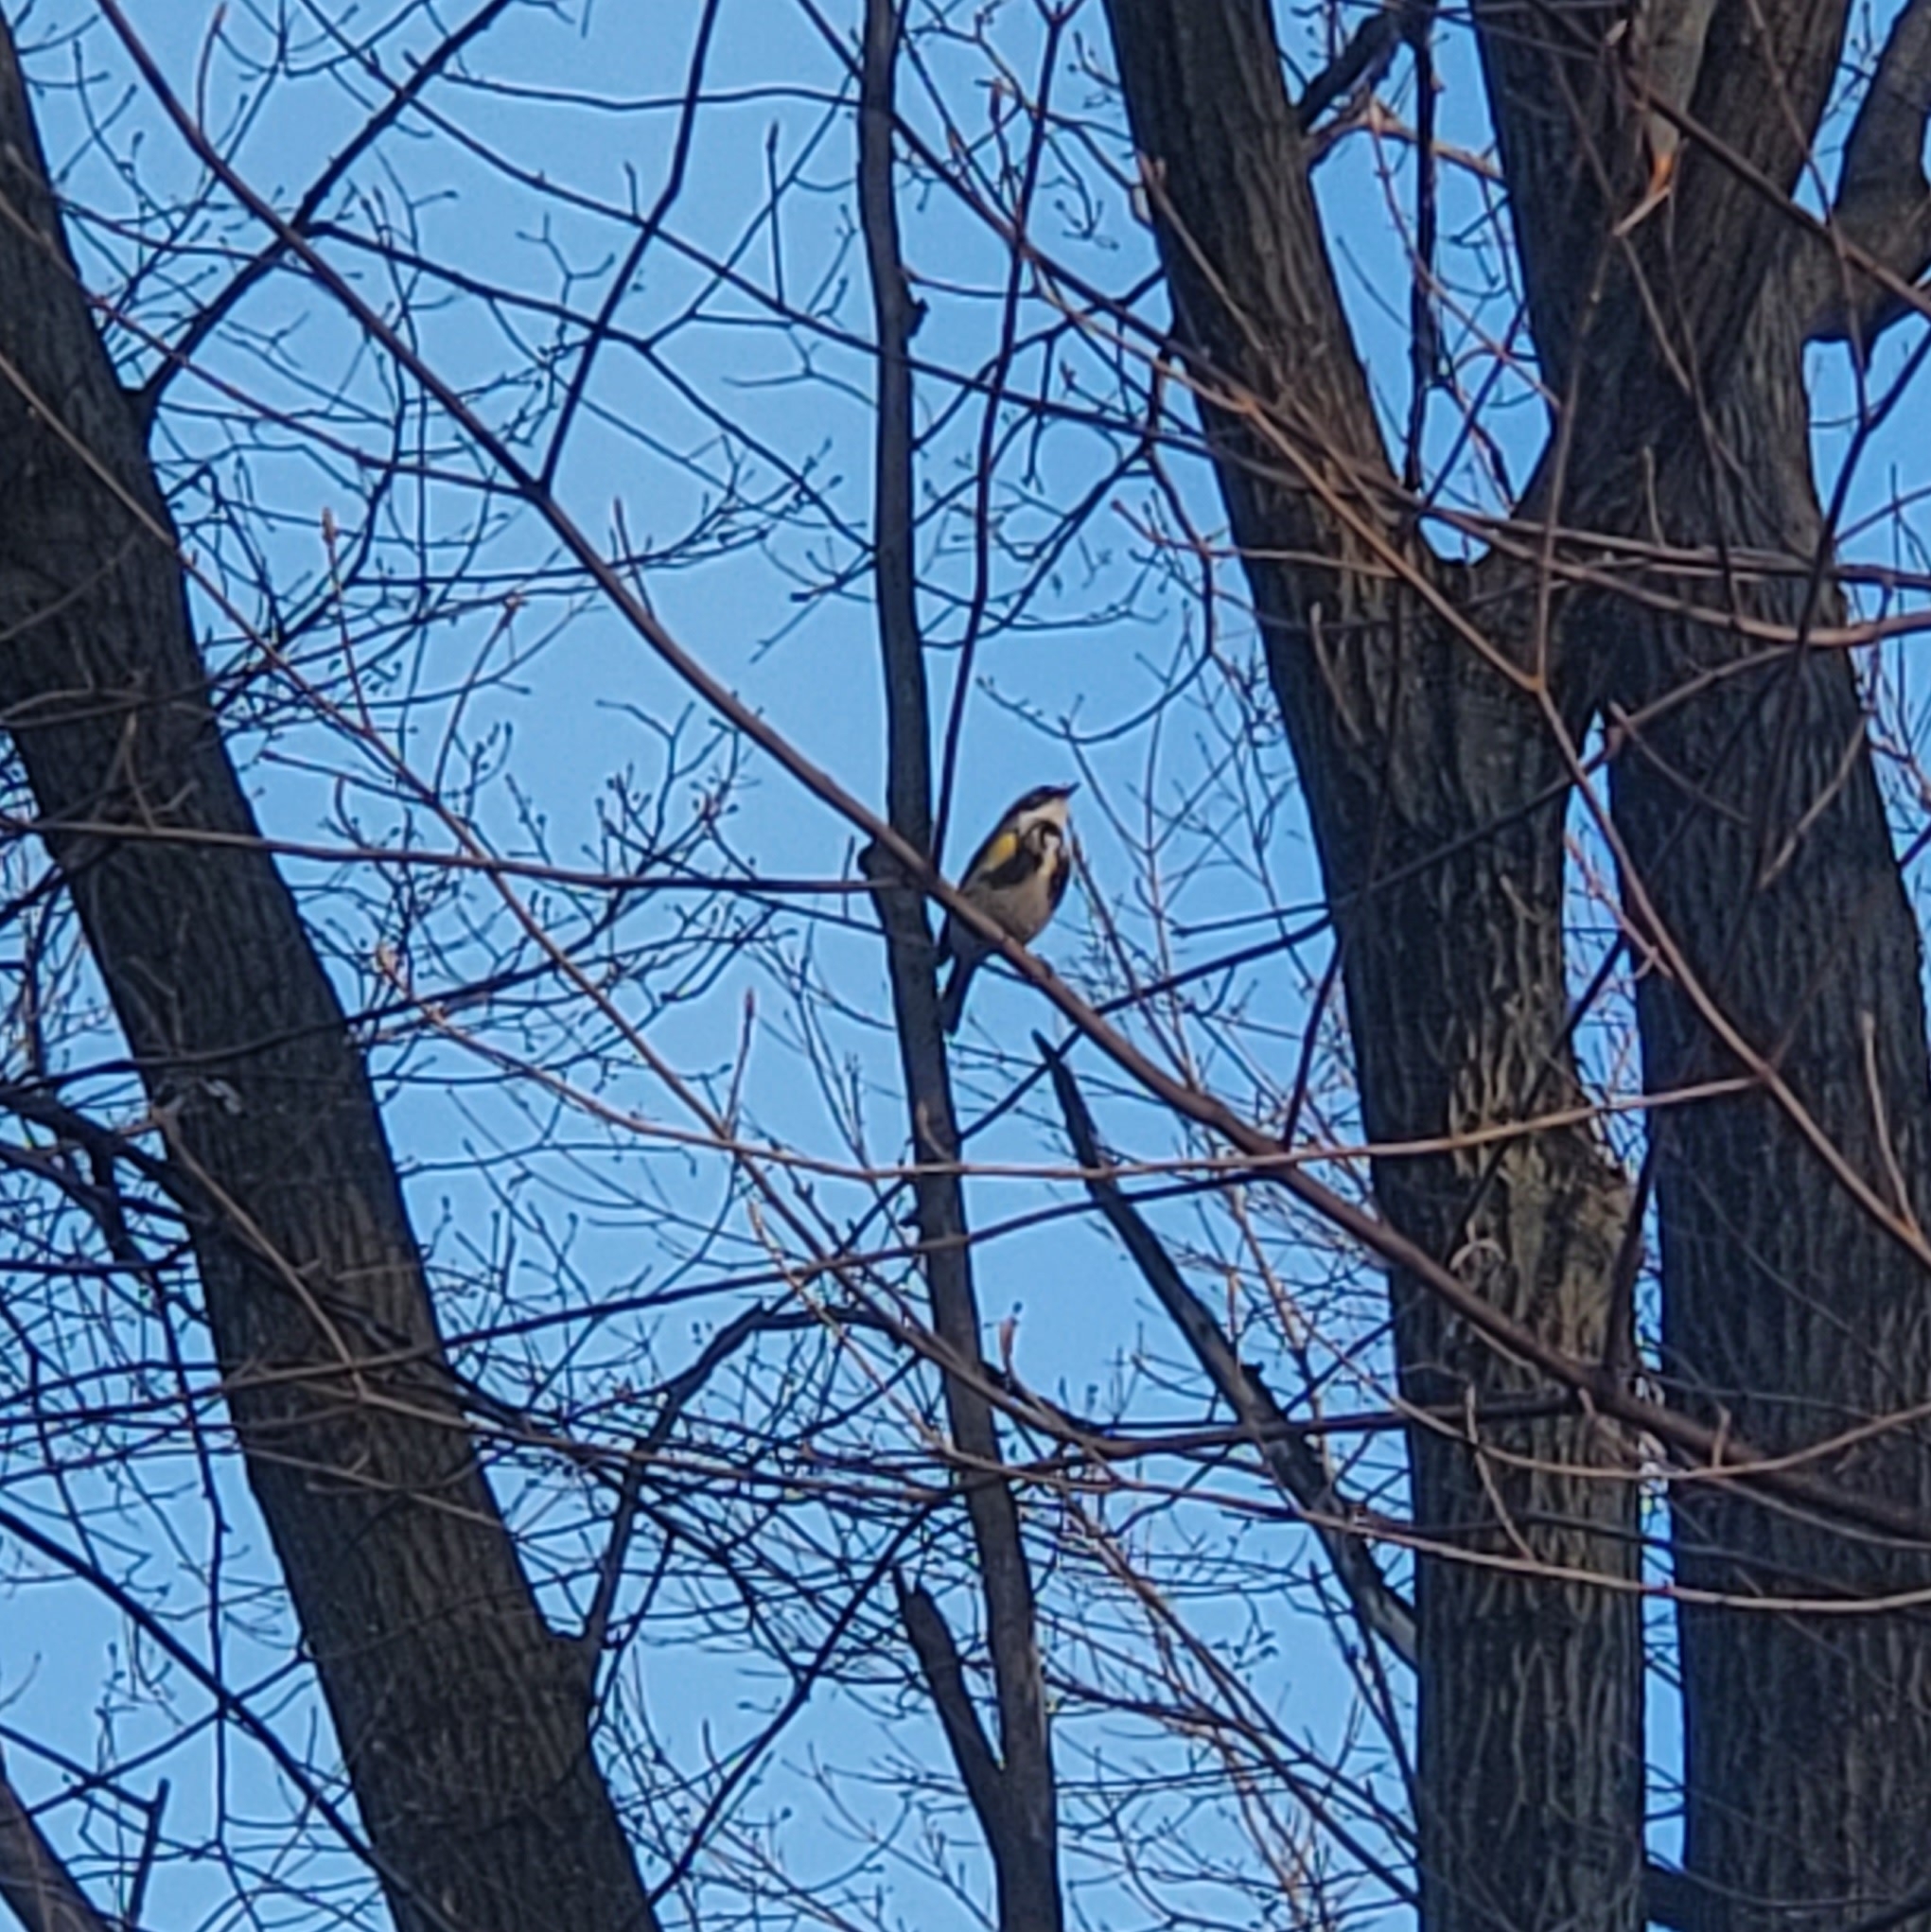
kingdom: Animalia
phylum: Chordata
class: Aves
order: Passeriformes
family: Parulidae
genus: Setophaga
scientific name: Setophaga coronata
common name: Myrtle warbler
